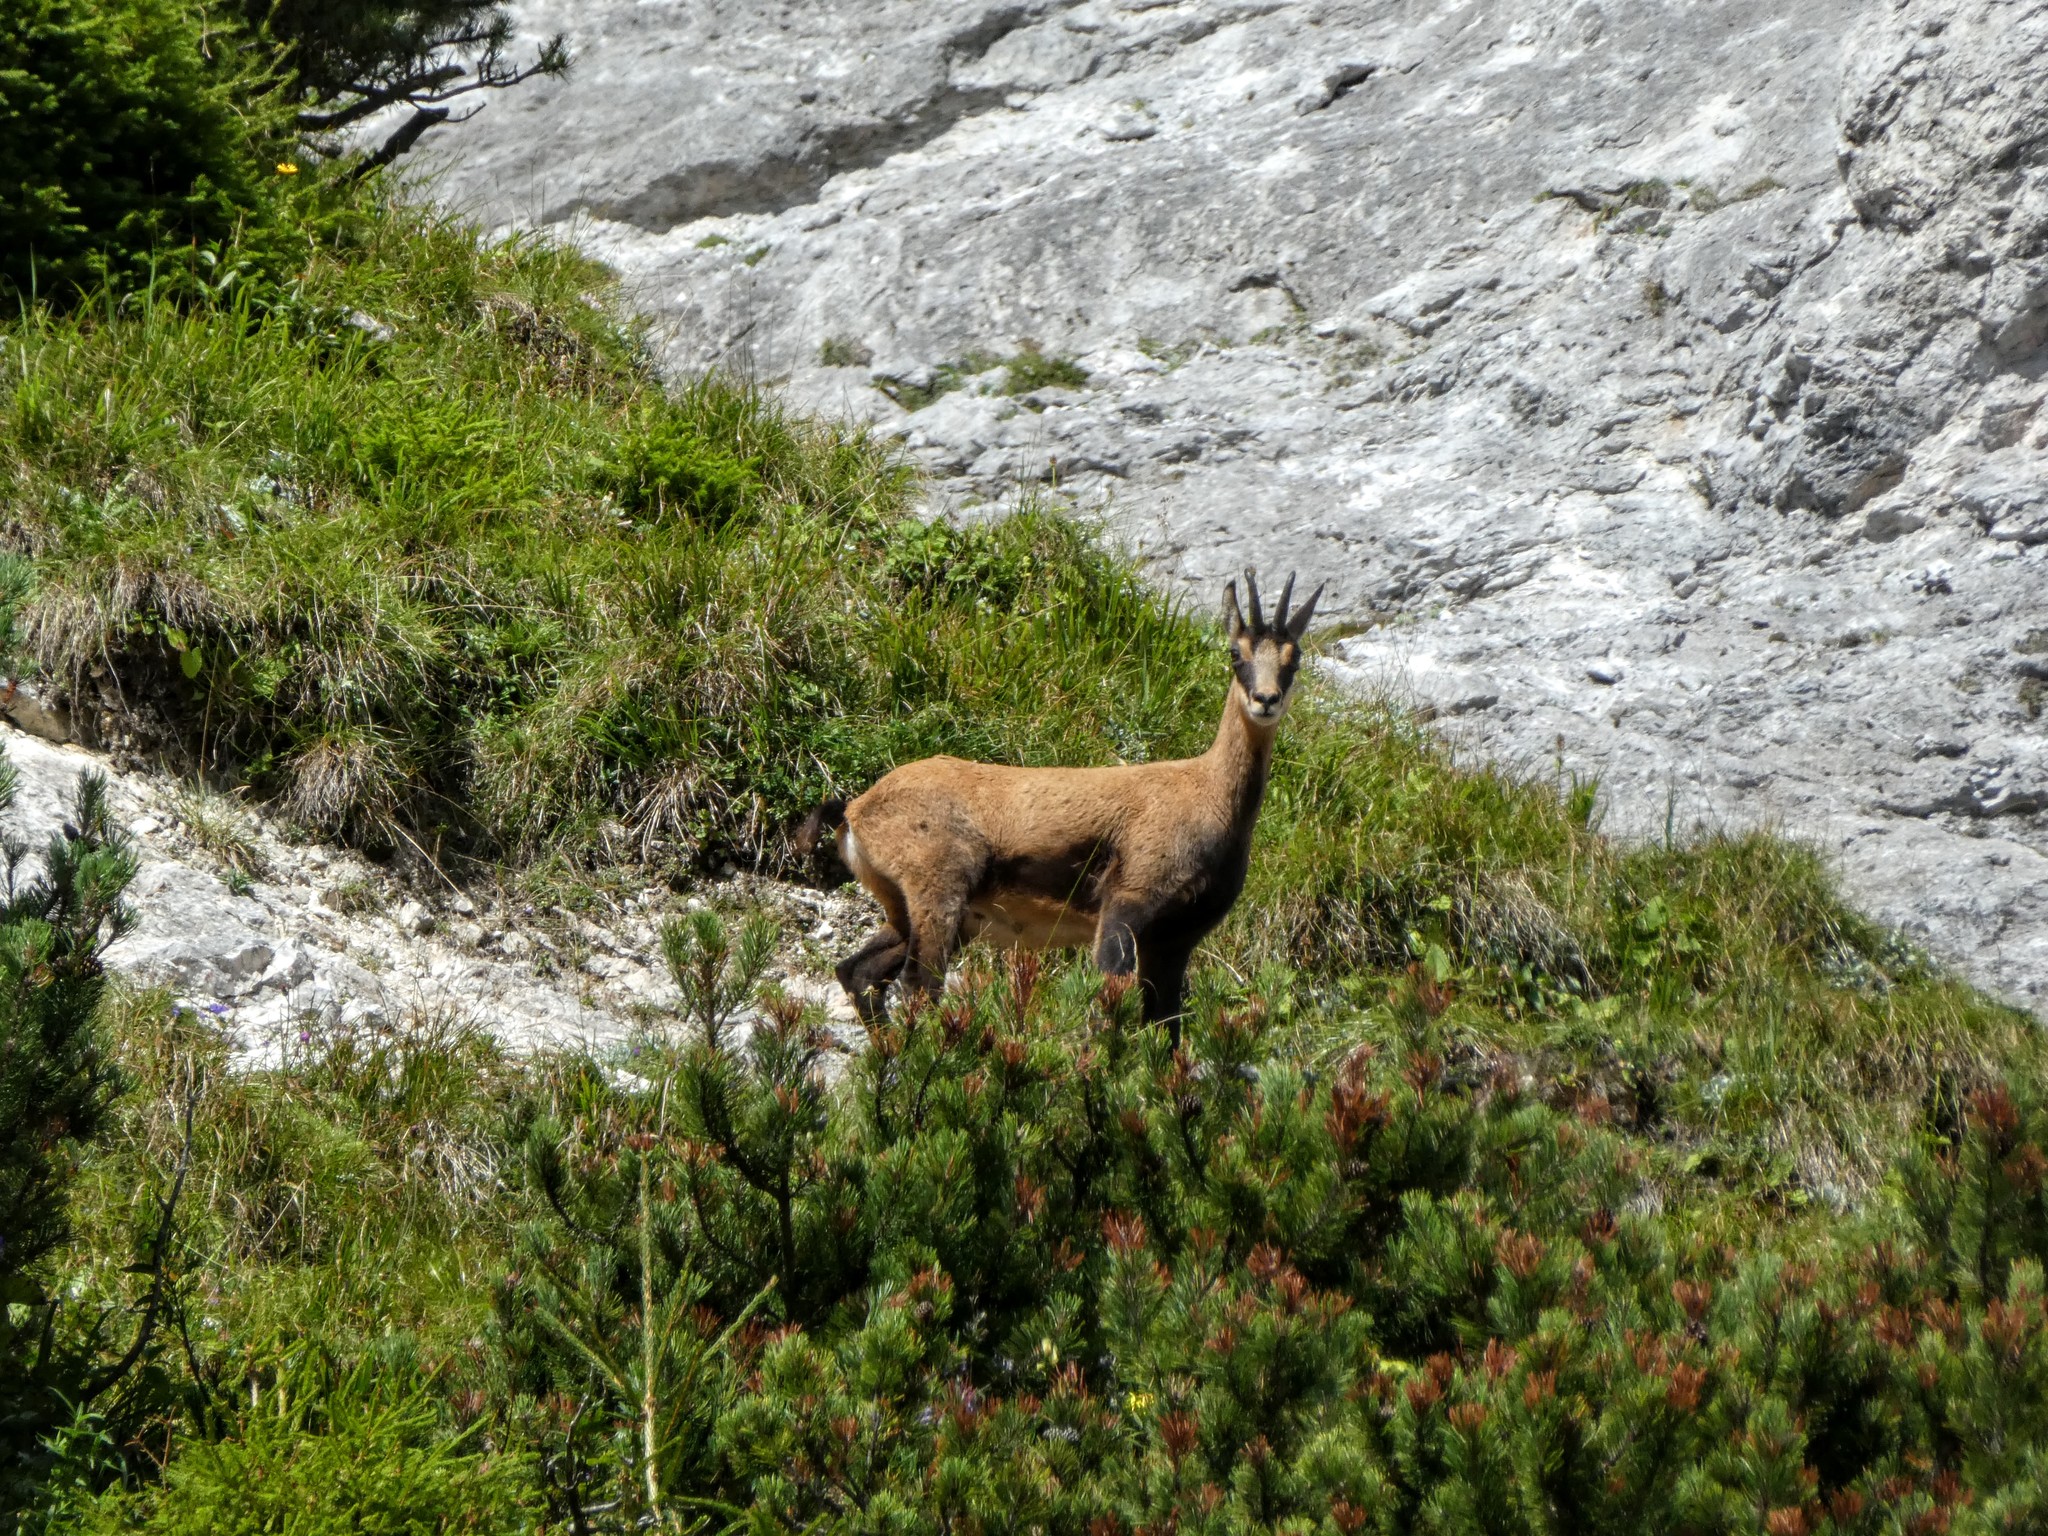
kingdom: Animalia
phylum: Chordata
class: Mammalia
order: Artiodactyla
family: Bovidae
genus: Rupicapra
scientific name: Rupicapra rupicapra
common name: Chamois
